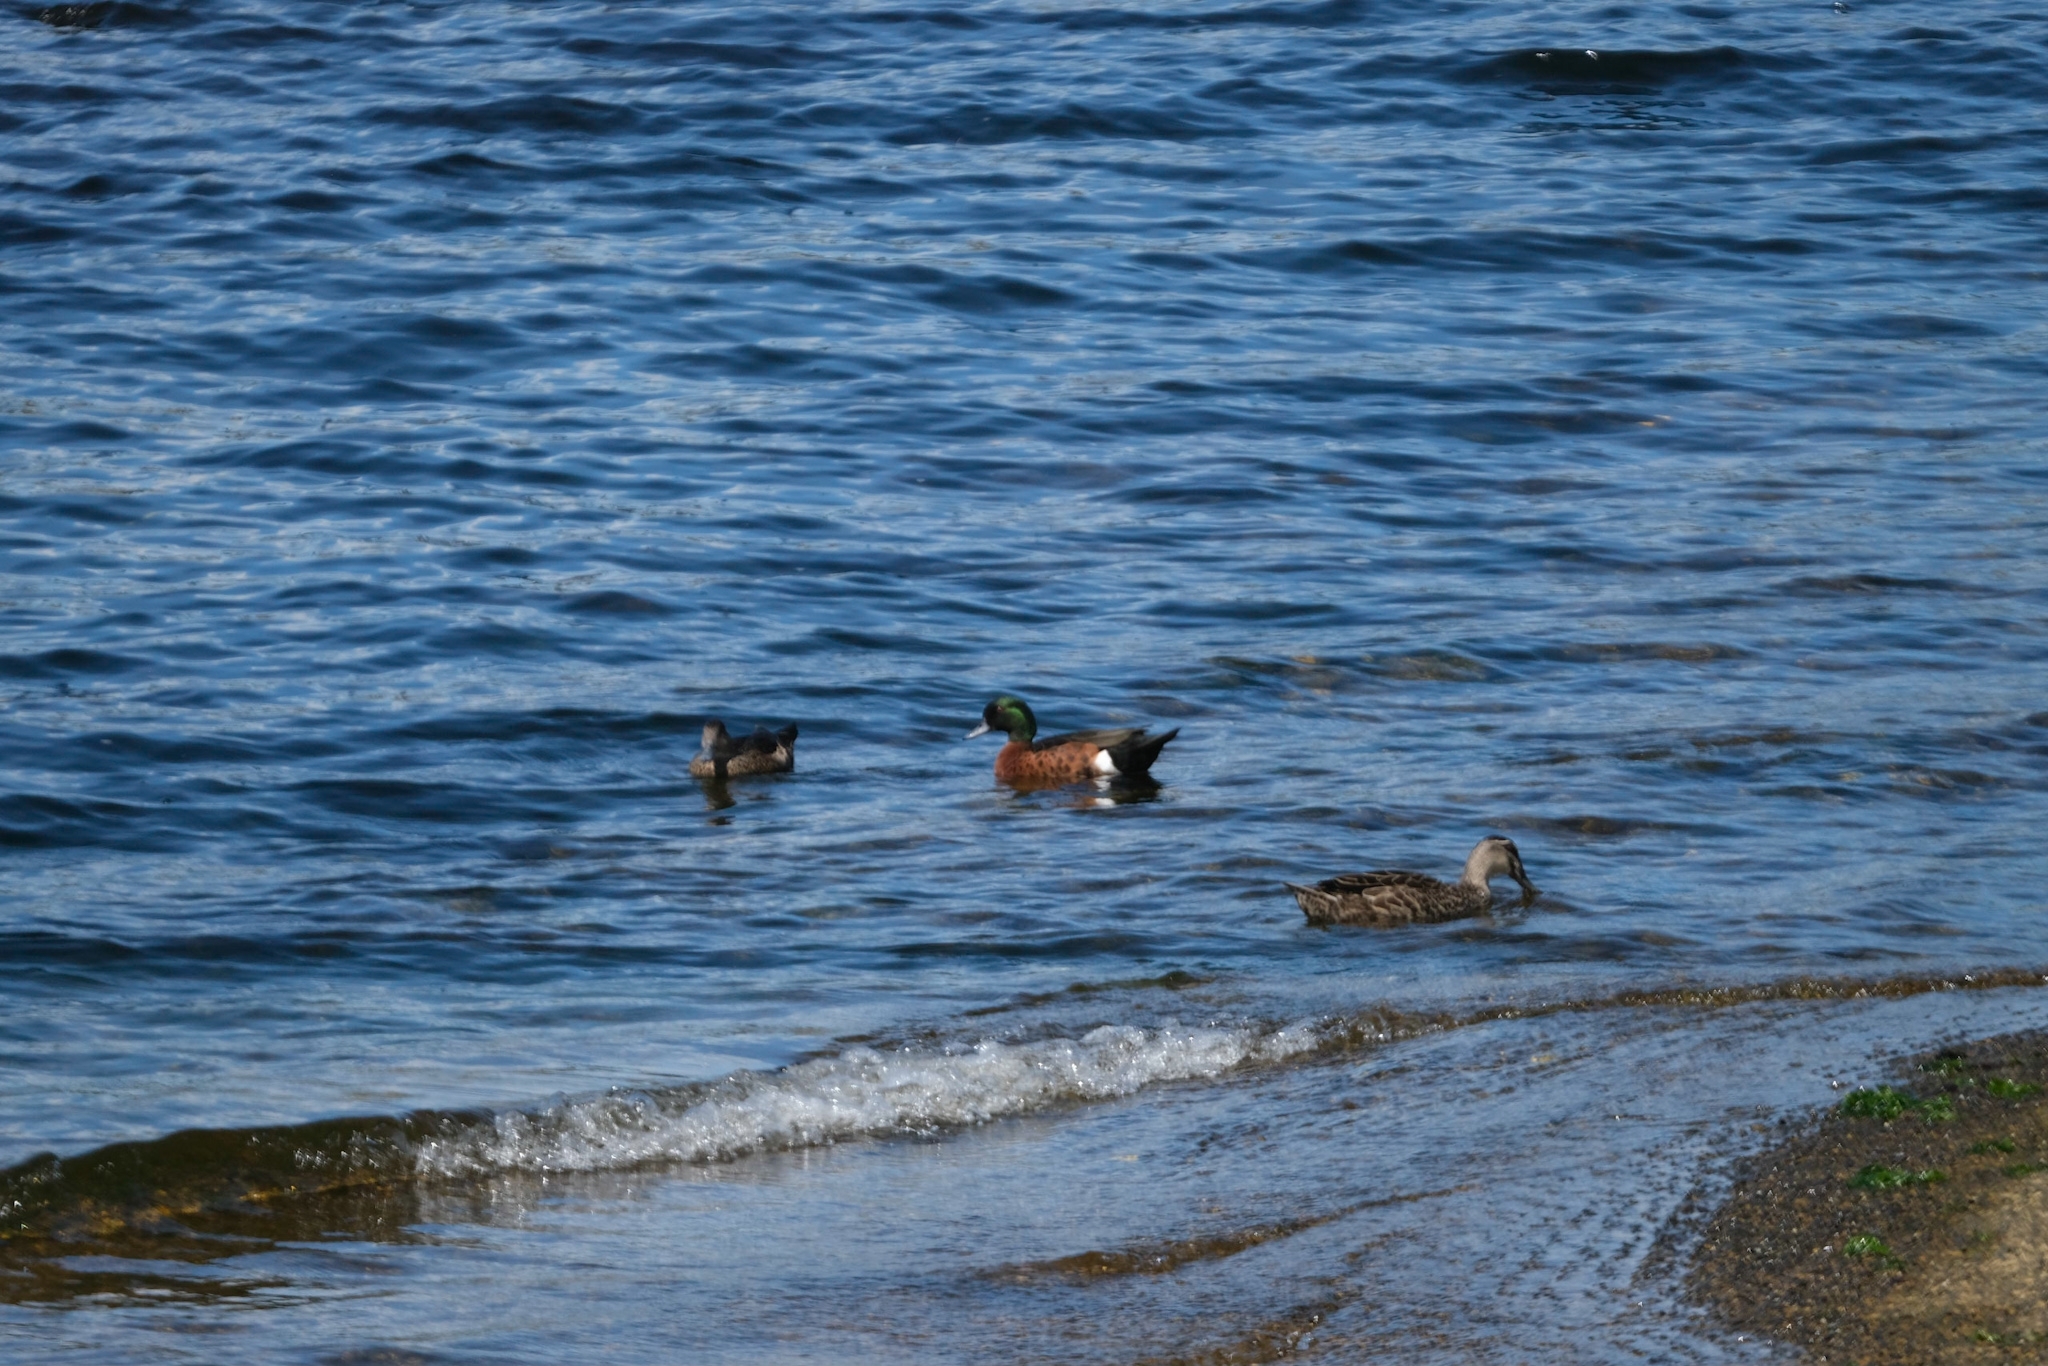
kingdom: Animalia
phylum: Chordata
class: Aves
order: Anseriformes
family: Anatidae
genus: Anas
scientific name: Anas castanea
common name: Chestnut teal
